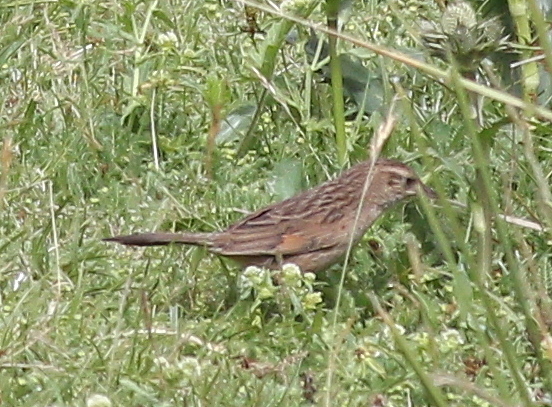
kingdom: Animalia
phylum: Chordata
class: Aves
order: Passeriformes
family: Furnariidae
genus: Asthenes
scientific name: Asthenes wyatti
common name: Streak-backed canastero
